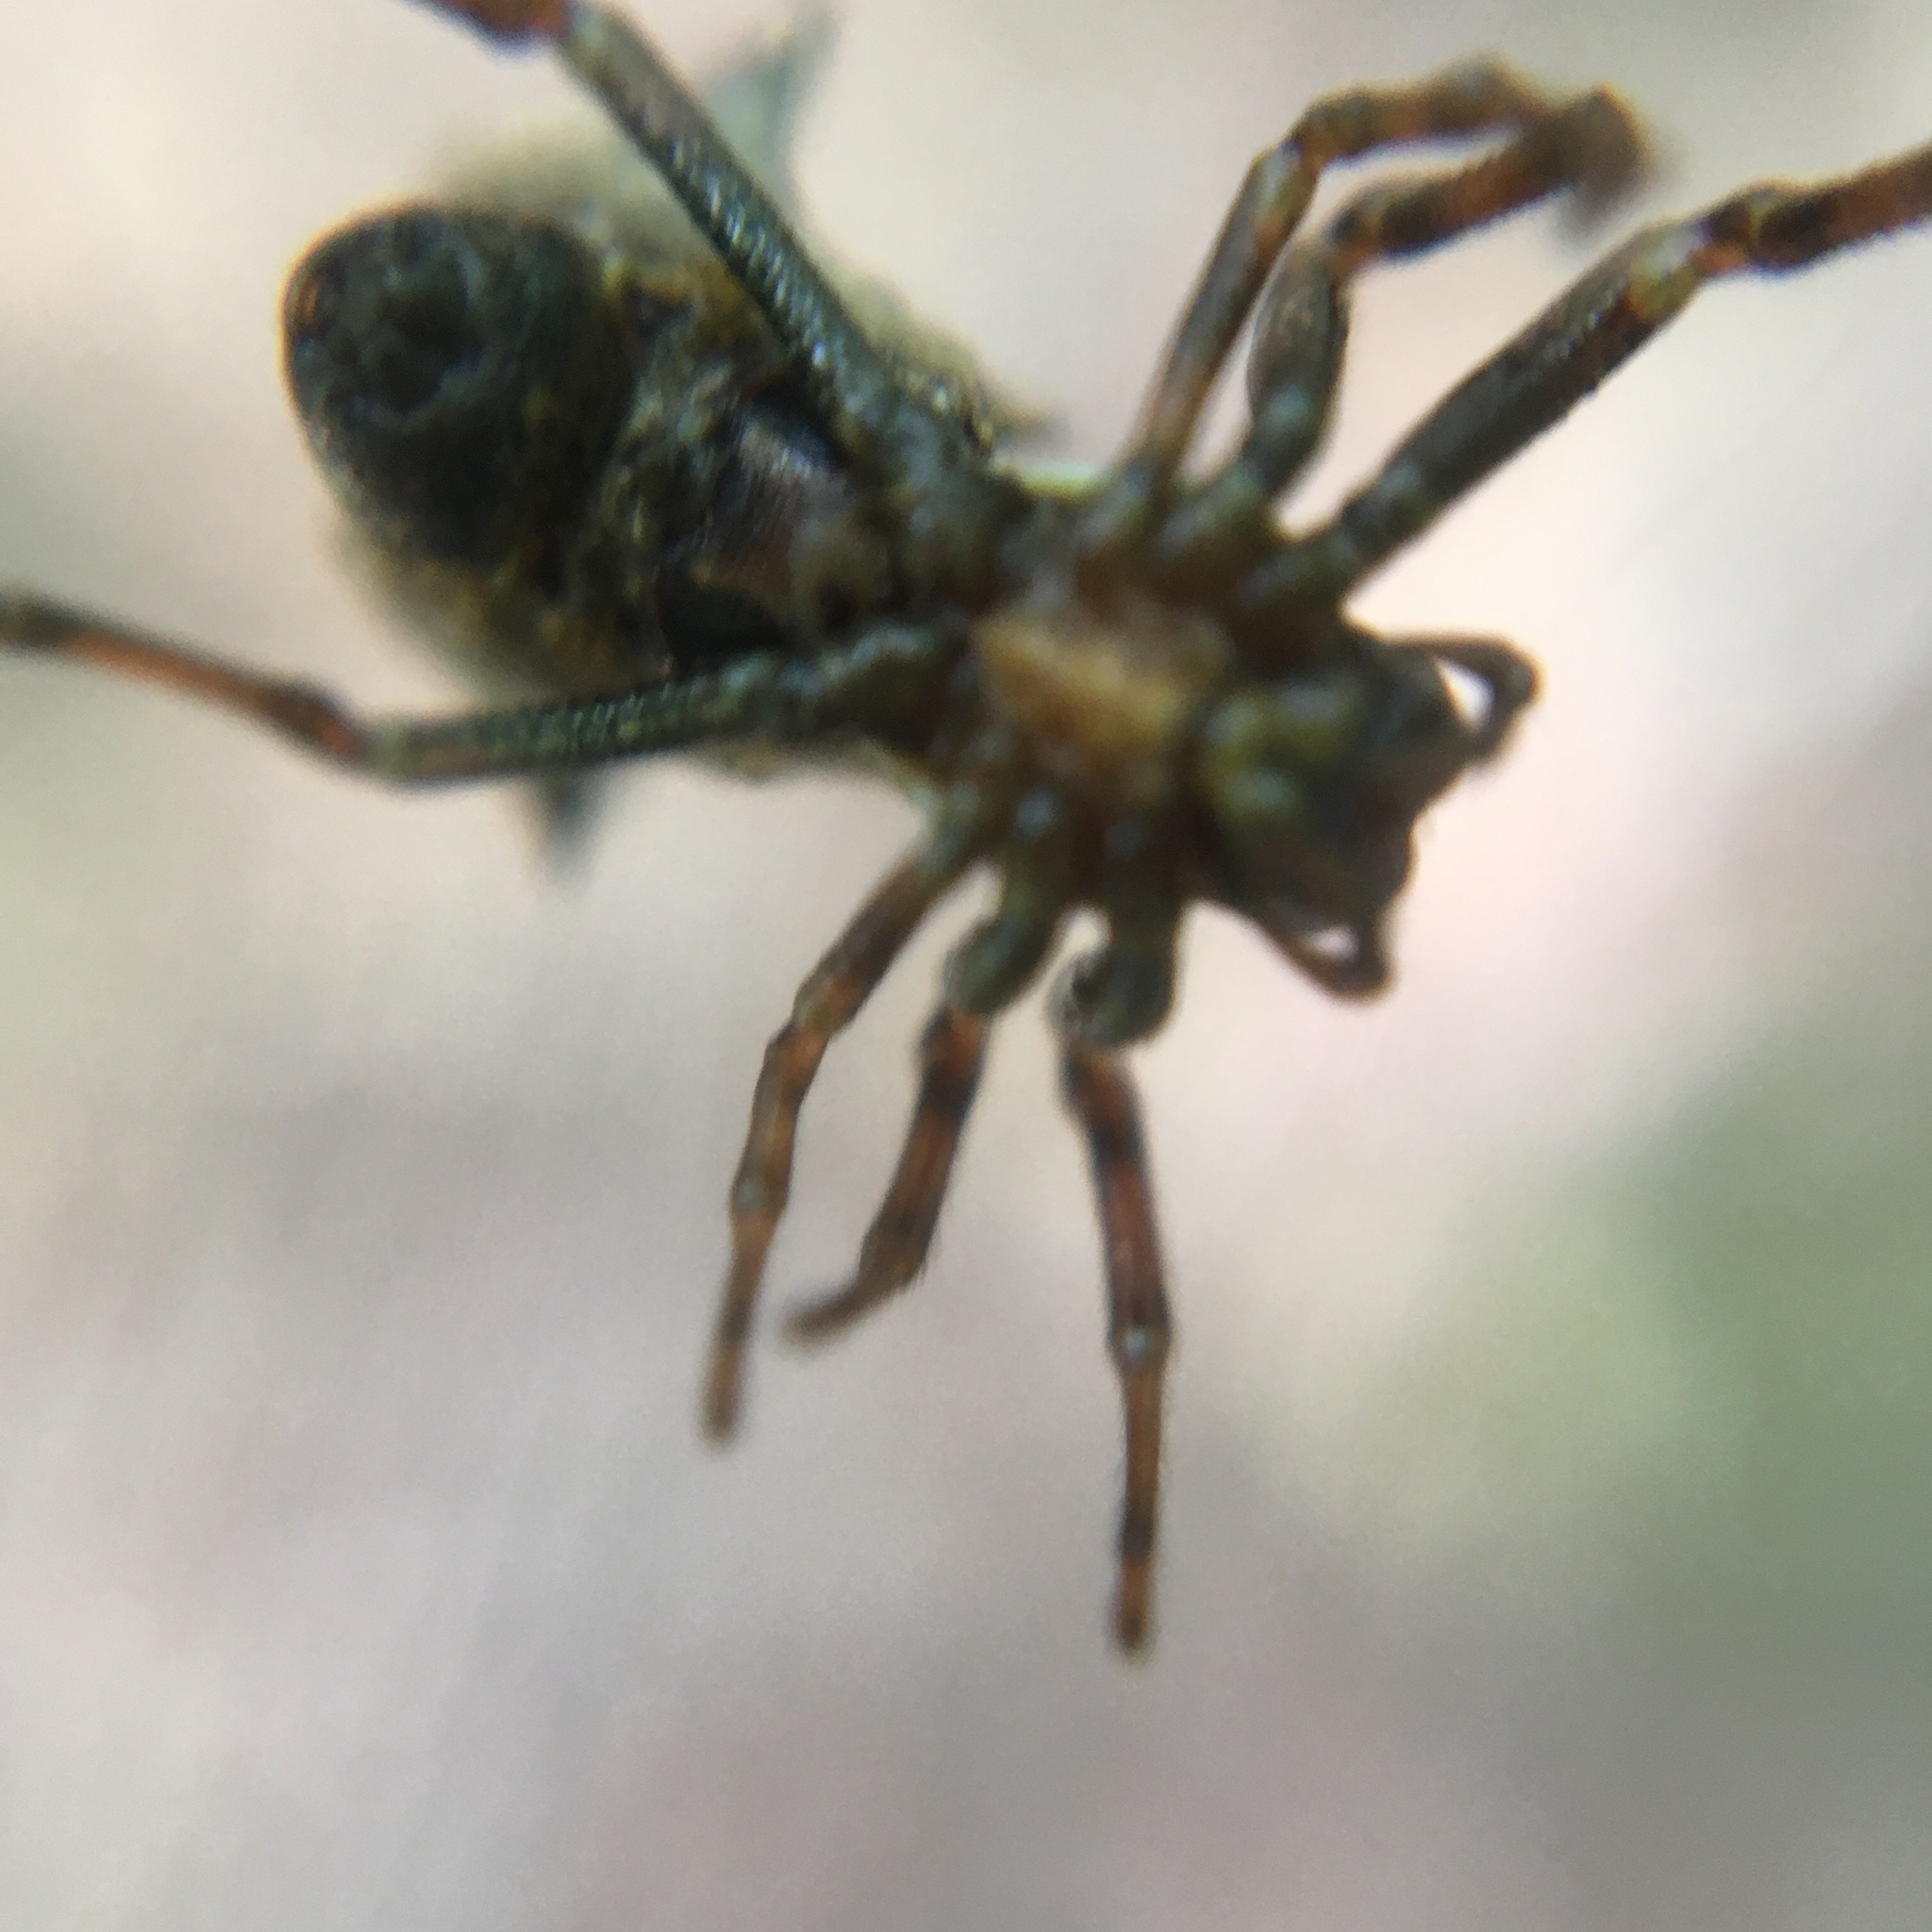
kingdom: Animalia
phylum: Arthropoda
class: Arachnida
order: Araneae
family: Araneidae
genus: Micrathena
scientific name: Micrathena gracilis
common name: Orb weavers
